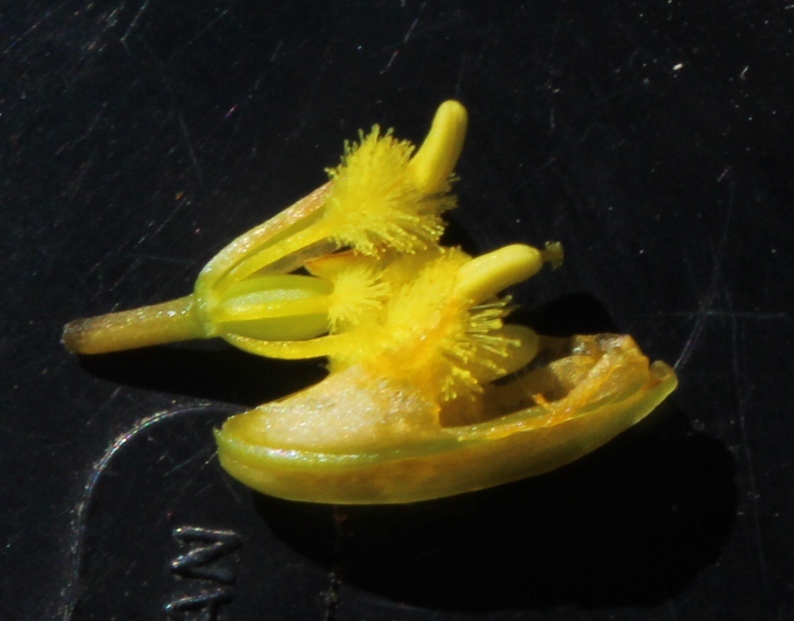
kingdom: Plantae
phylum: Tracheophyta
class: Liliopsida
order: Asparagales
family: Asphodelaceae
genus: Bulbine
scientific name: Bulbine fallax
